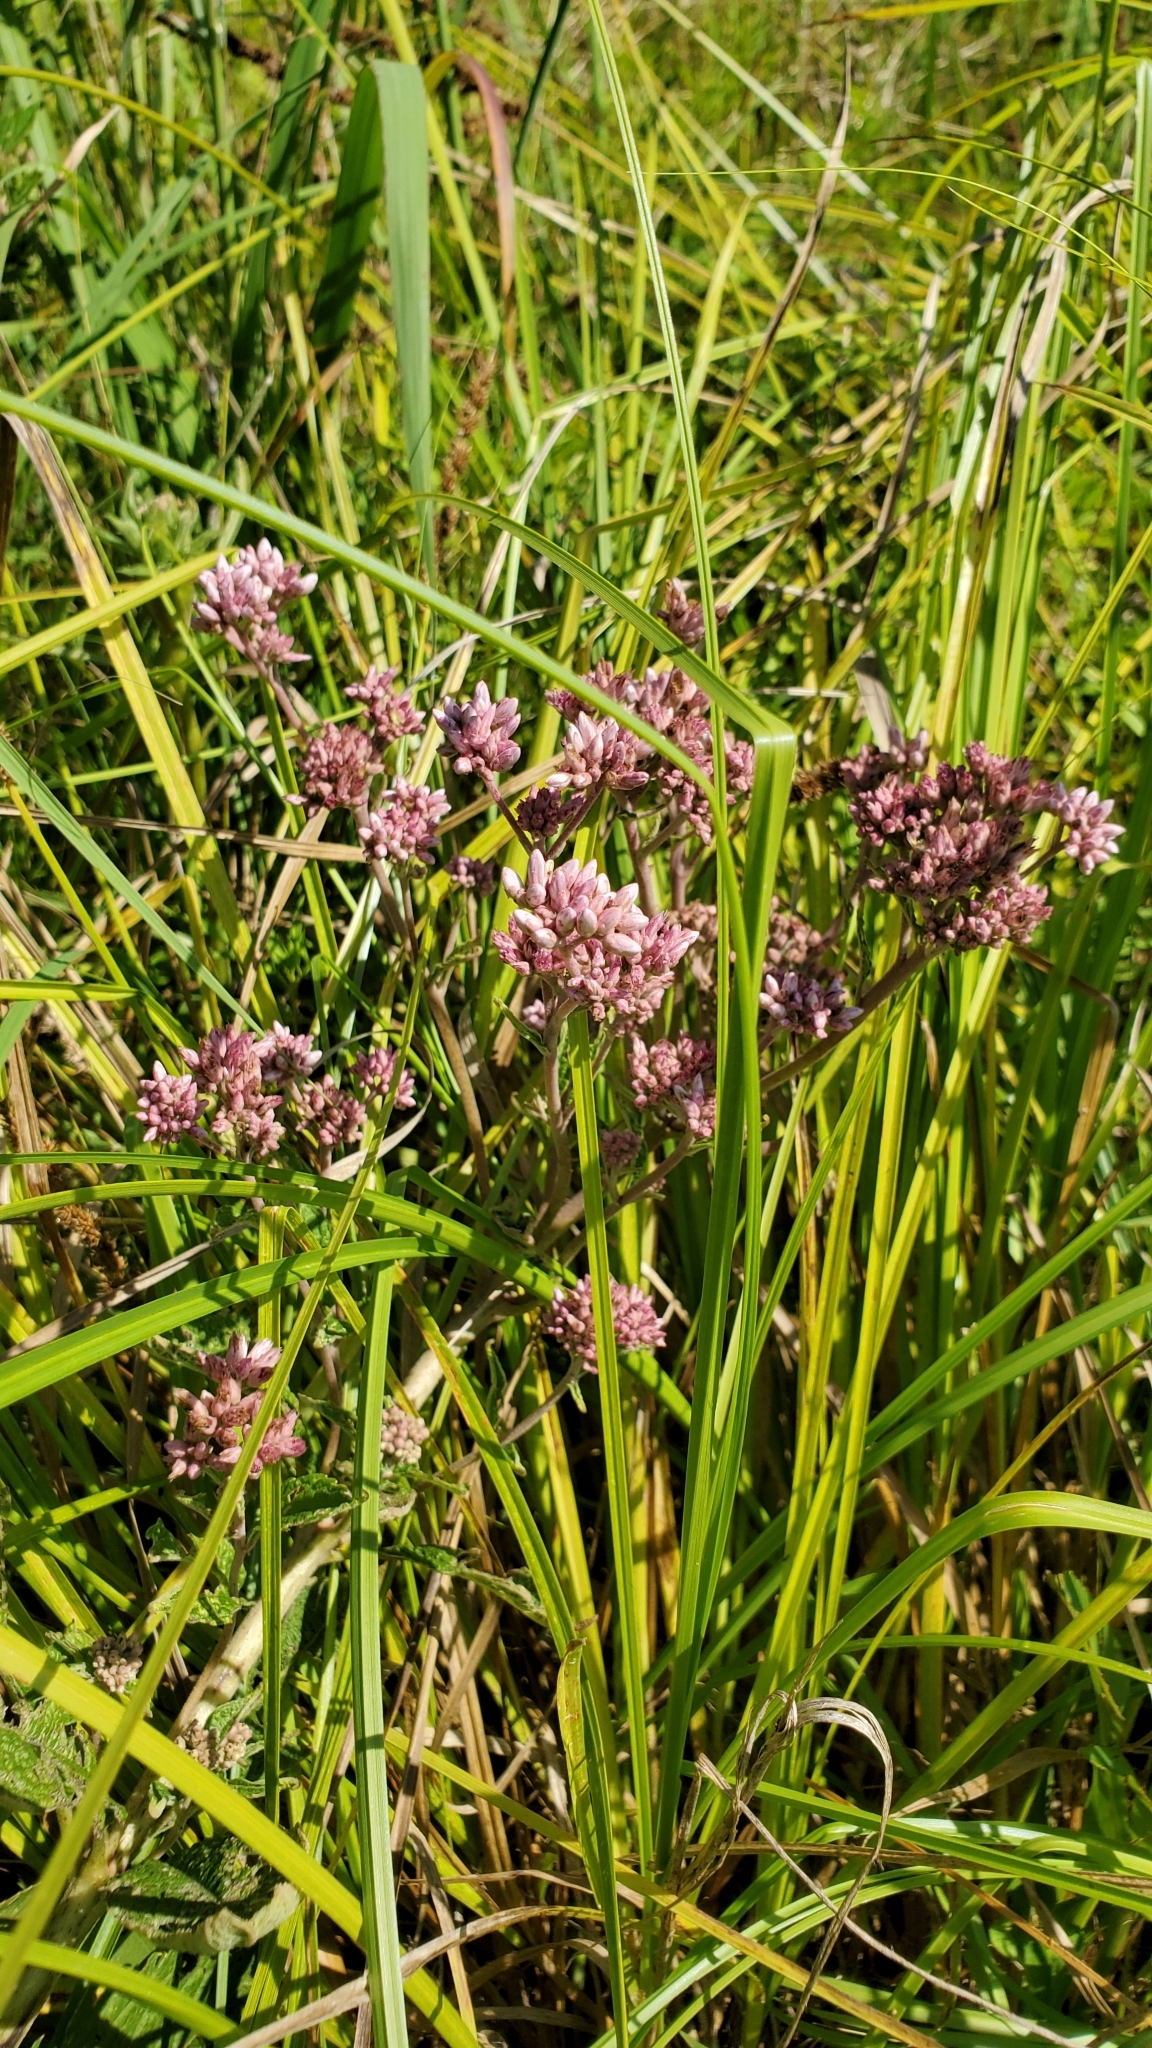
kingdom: Plantae
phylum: Tracheophyta
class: Magnoliopsida
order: Asterales
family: Asteraceae
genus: Eutrochium
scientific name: Eutrochium maculatum
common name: Spotted joe pye weed
